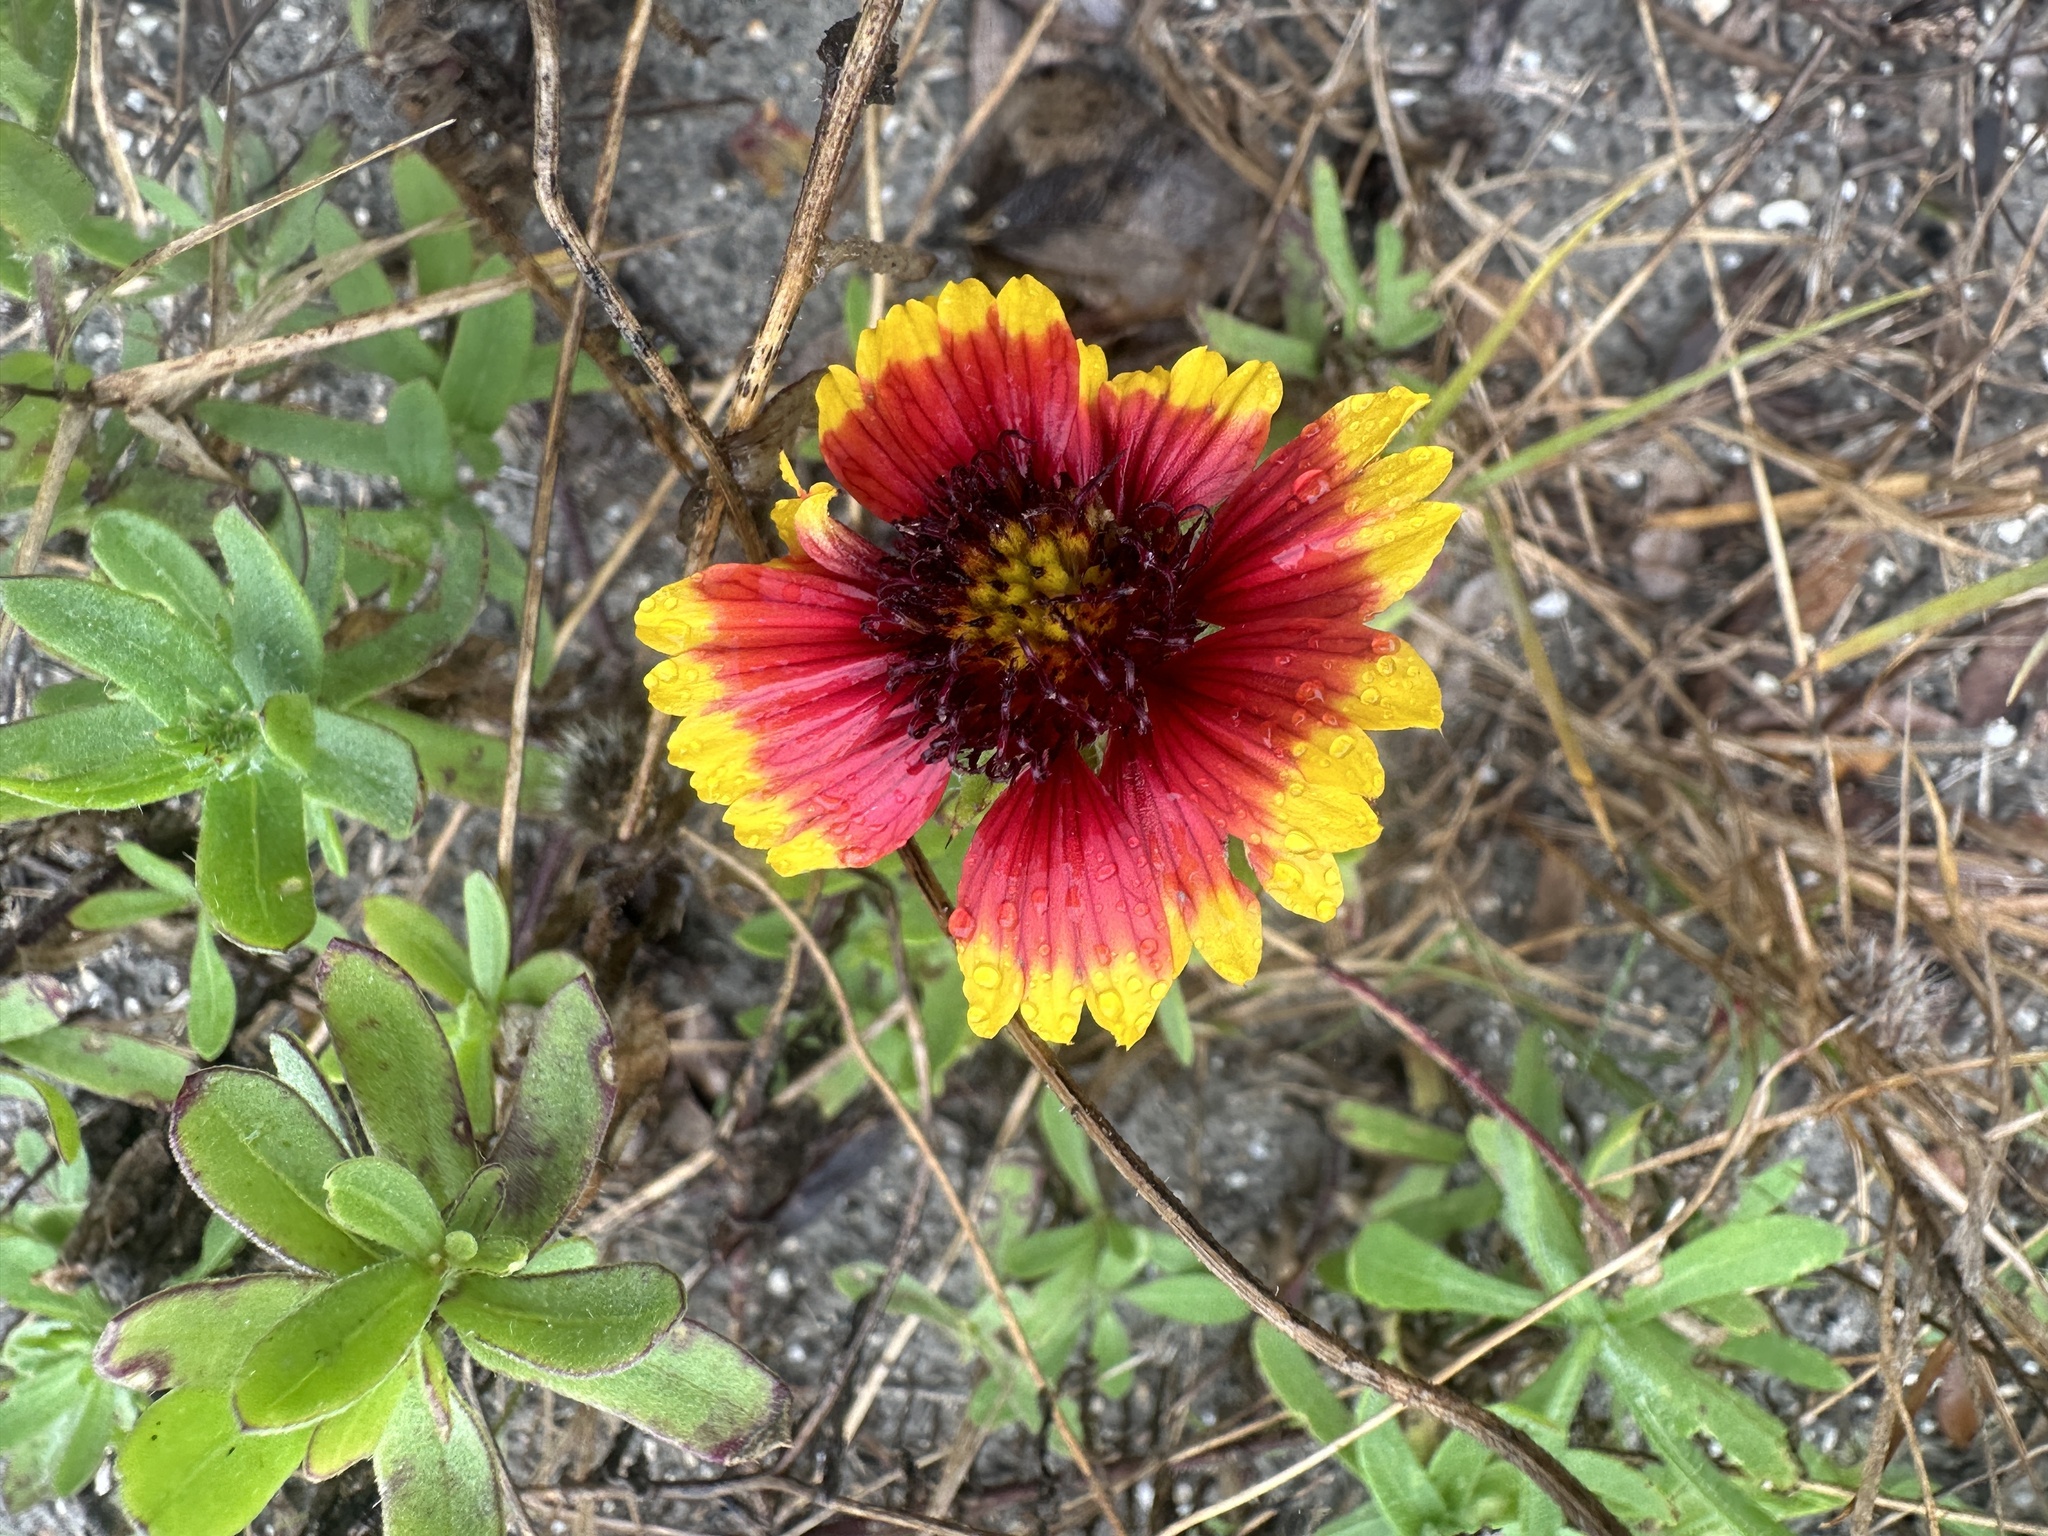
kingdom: Plantae
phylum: Tracheophyta
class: Magnoliopsida
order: Asterales
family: Asteraceae
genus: Gaillardia
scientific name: Gaillardia pulchella
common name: Firewheel
